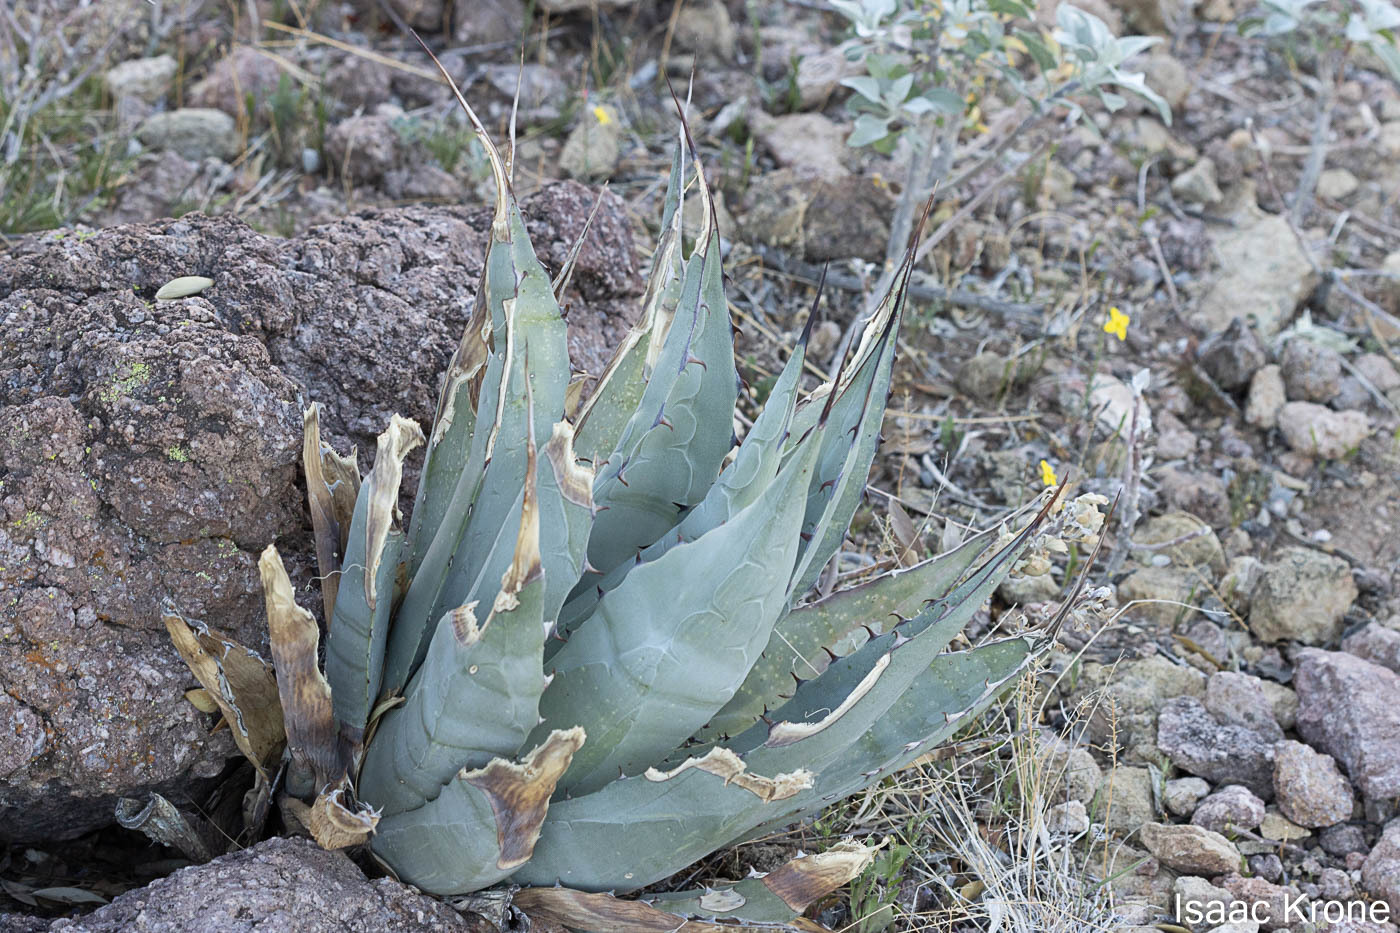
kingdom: Plantae
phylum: Tracheophyta
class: Liliopsida
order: Asparagales
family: Asparagaceae
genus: Agave
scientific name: Agave simplex
